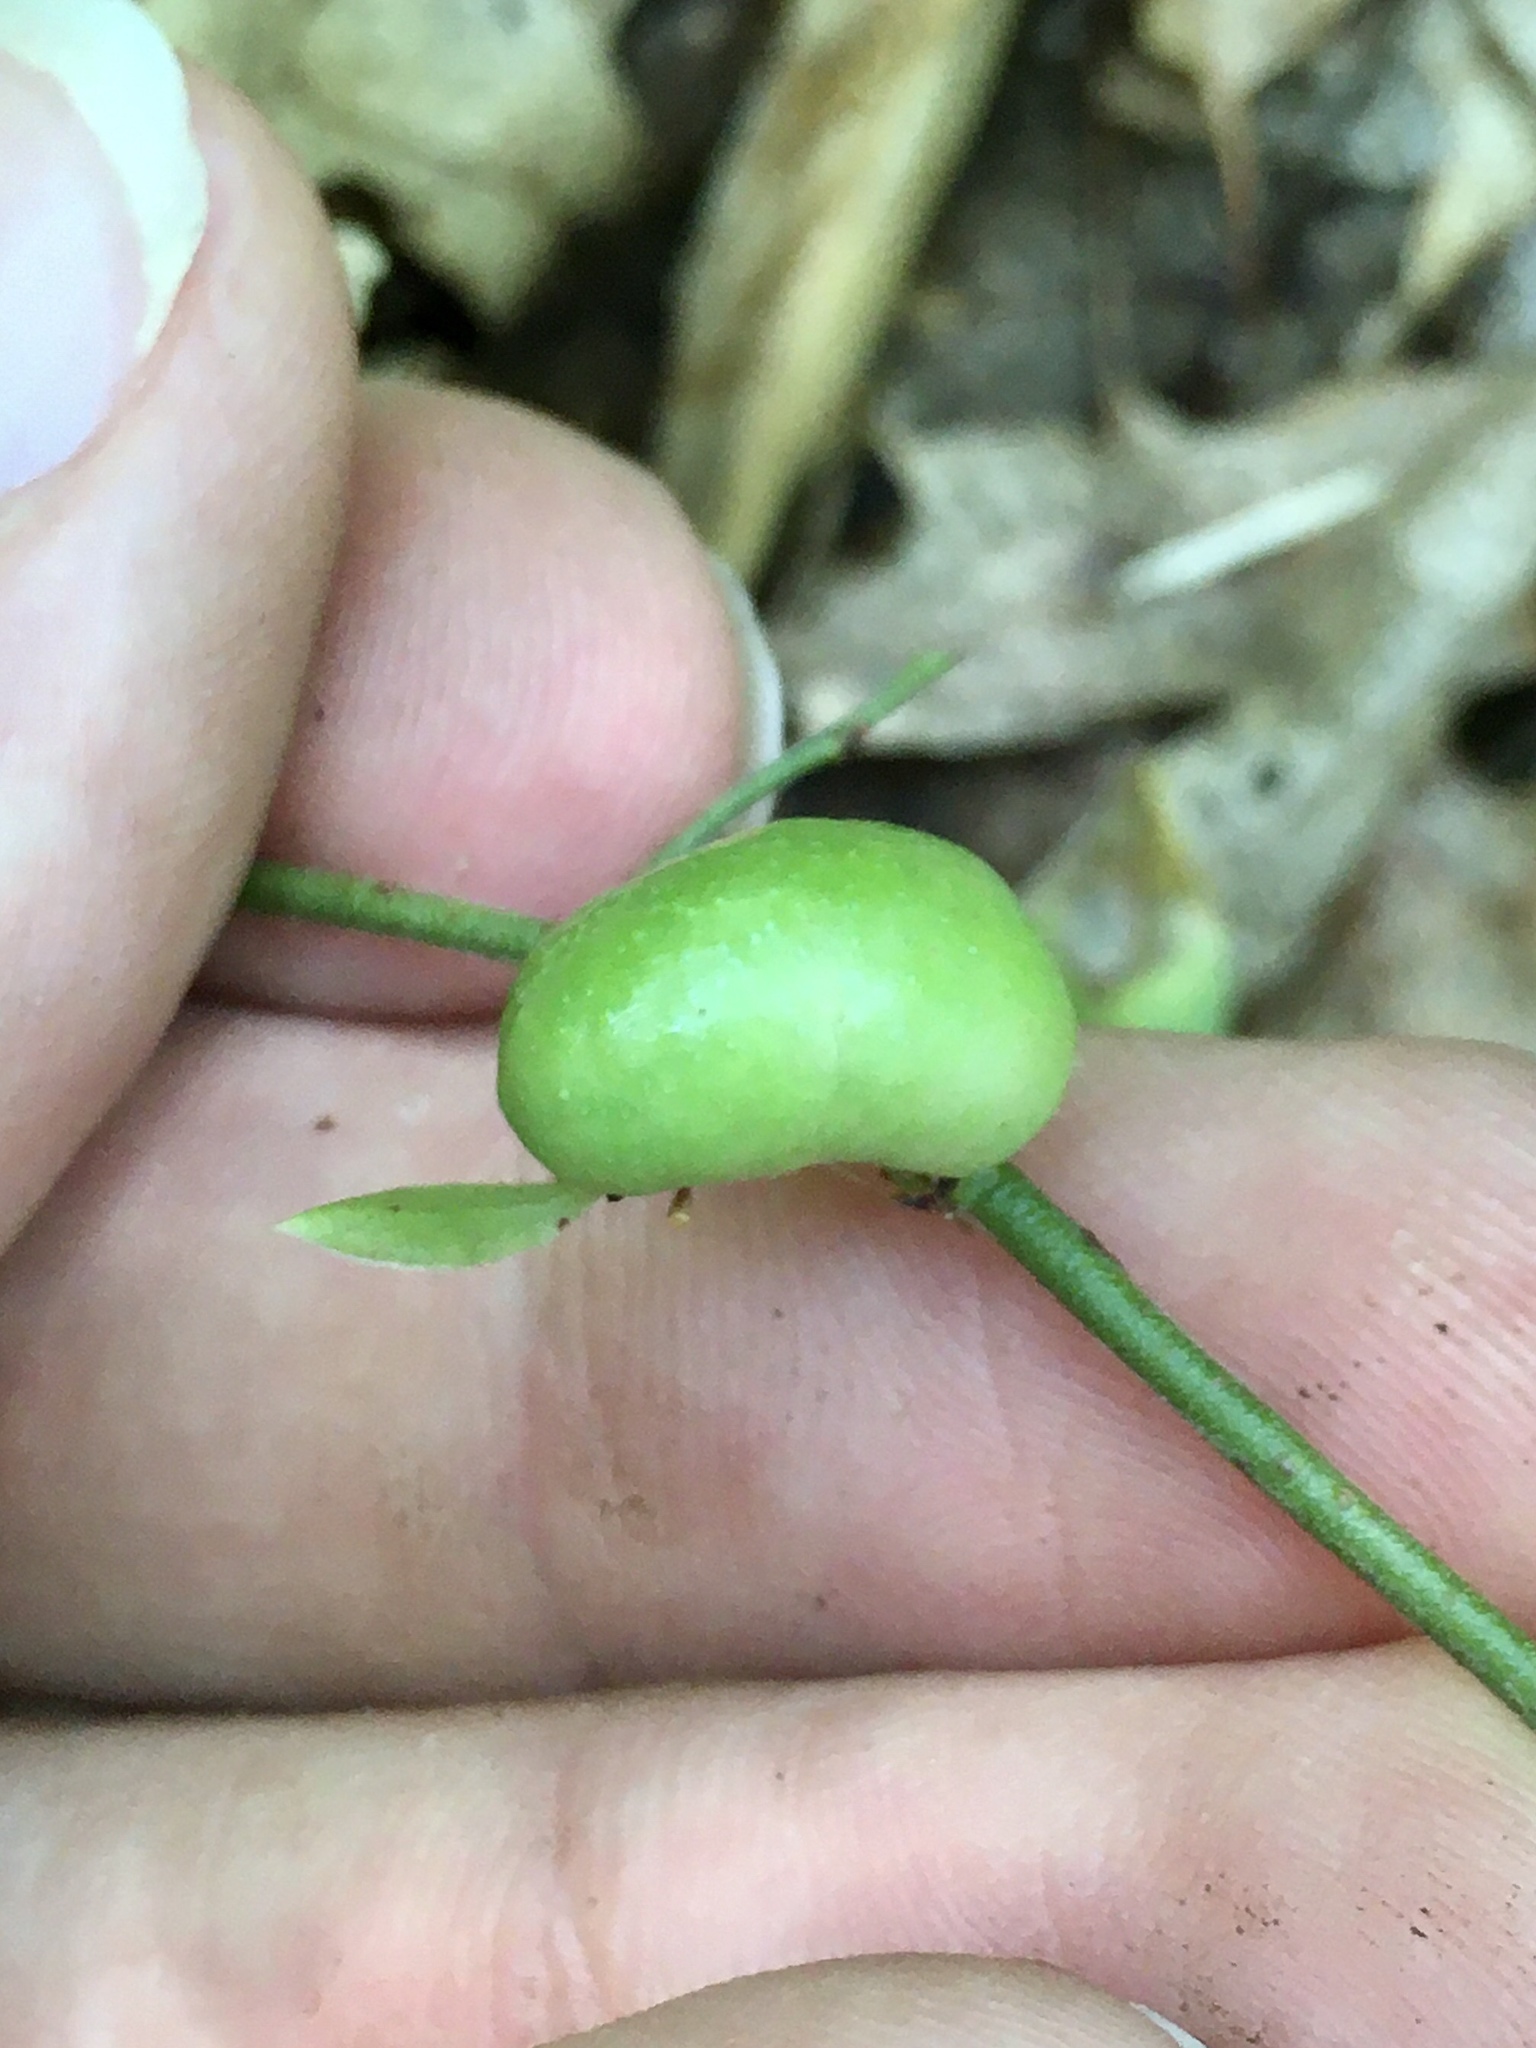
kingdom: Animalia
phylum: Arthropoda
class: Insecta
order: Hymenoptera
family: Pteromalidae
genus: Hemadas
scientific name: Hemadas nubilipennis
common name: Blueberry stem gall wasp
